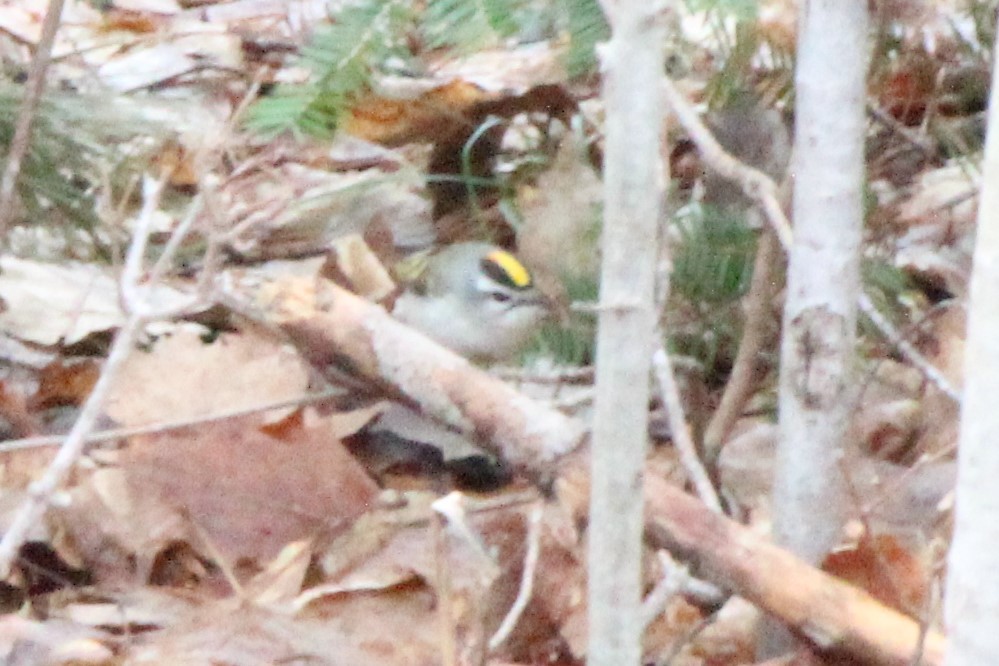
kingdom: Animalia
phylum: Chordata
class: Aves
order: Passeriformes
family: Regulidae
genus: Regulus
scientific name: Regulus satrapa
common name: Golden-crowned kinglet
